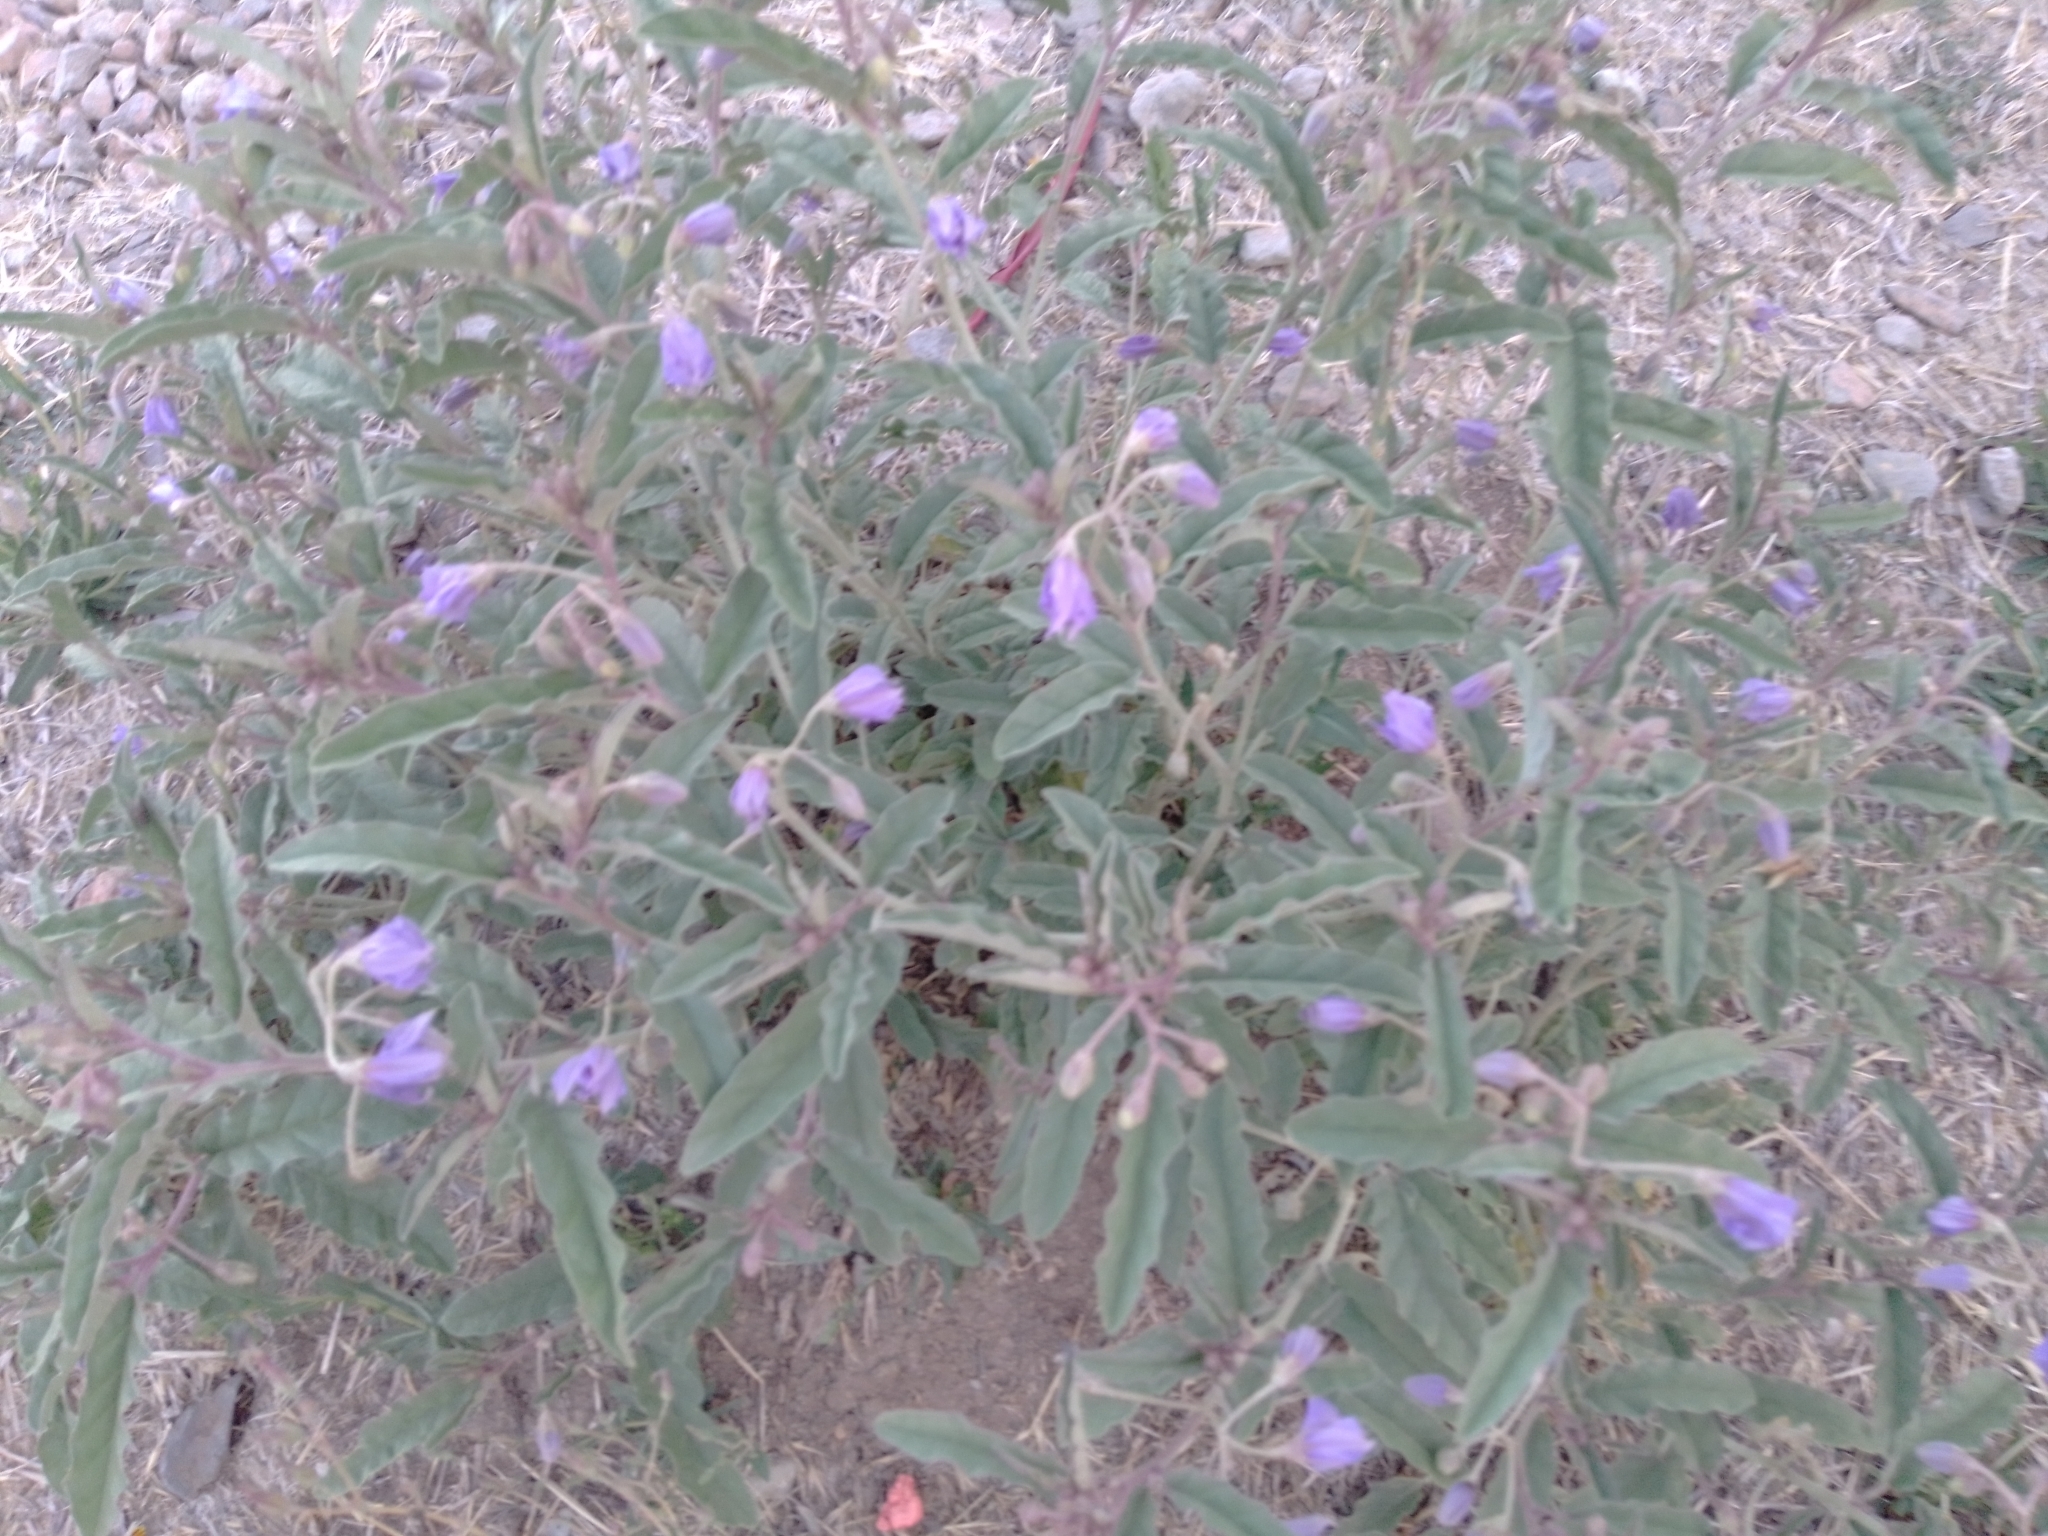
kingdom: Plantae
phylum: Tracheophyta
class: Magnoliopsida
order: Solanales
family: Solanaceae
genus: Solanum
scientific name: Solanum elaeagnifolium
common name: Silverleaf nightshade
